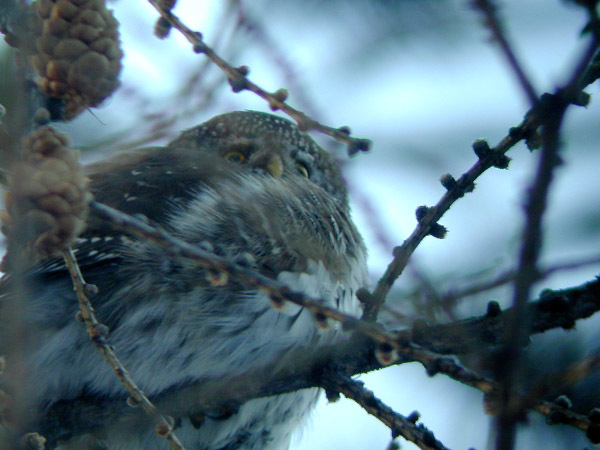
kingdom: Animalia
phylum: Chordata
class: Aves
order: Strigiformes
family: Strigidae
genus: Glaucidium
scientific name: Glaucidium passerinum
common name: Eurasian pygmy owl
